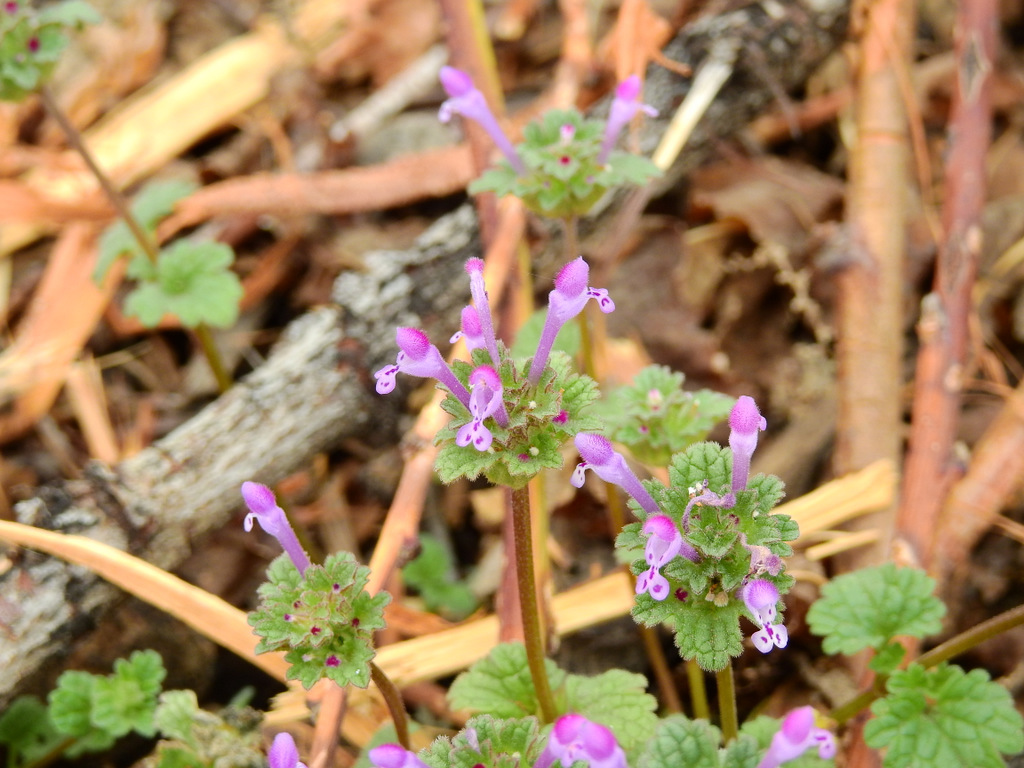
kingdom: Plantae
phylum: Tracheophyta
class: Magnoliopsida
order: Lamiales
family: Lamiaceae
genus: Lamium
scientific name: Lamium amplexicaule
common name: Henbit dead-nettle
